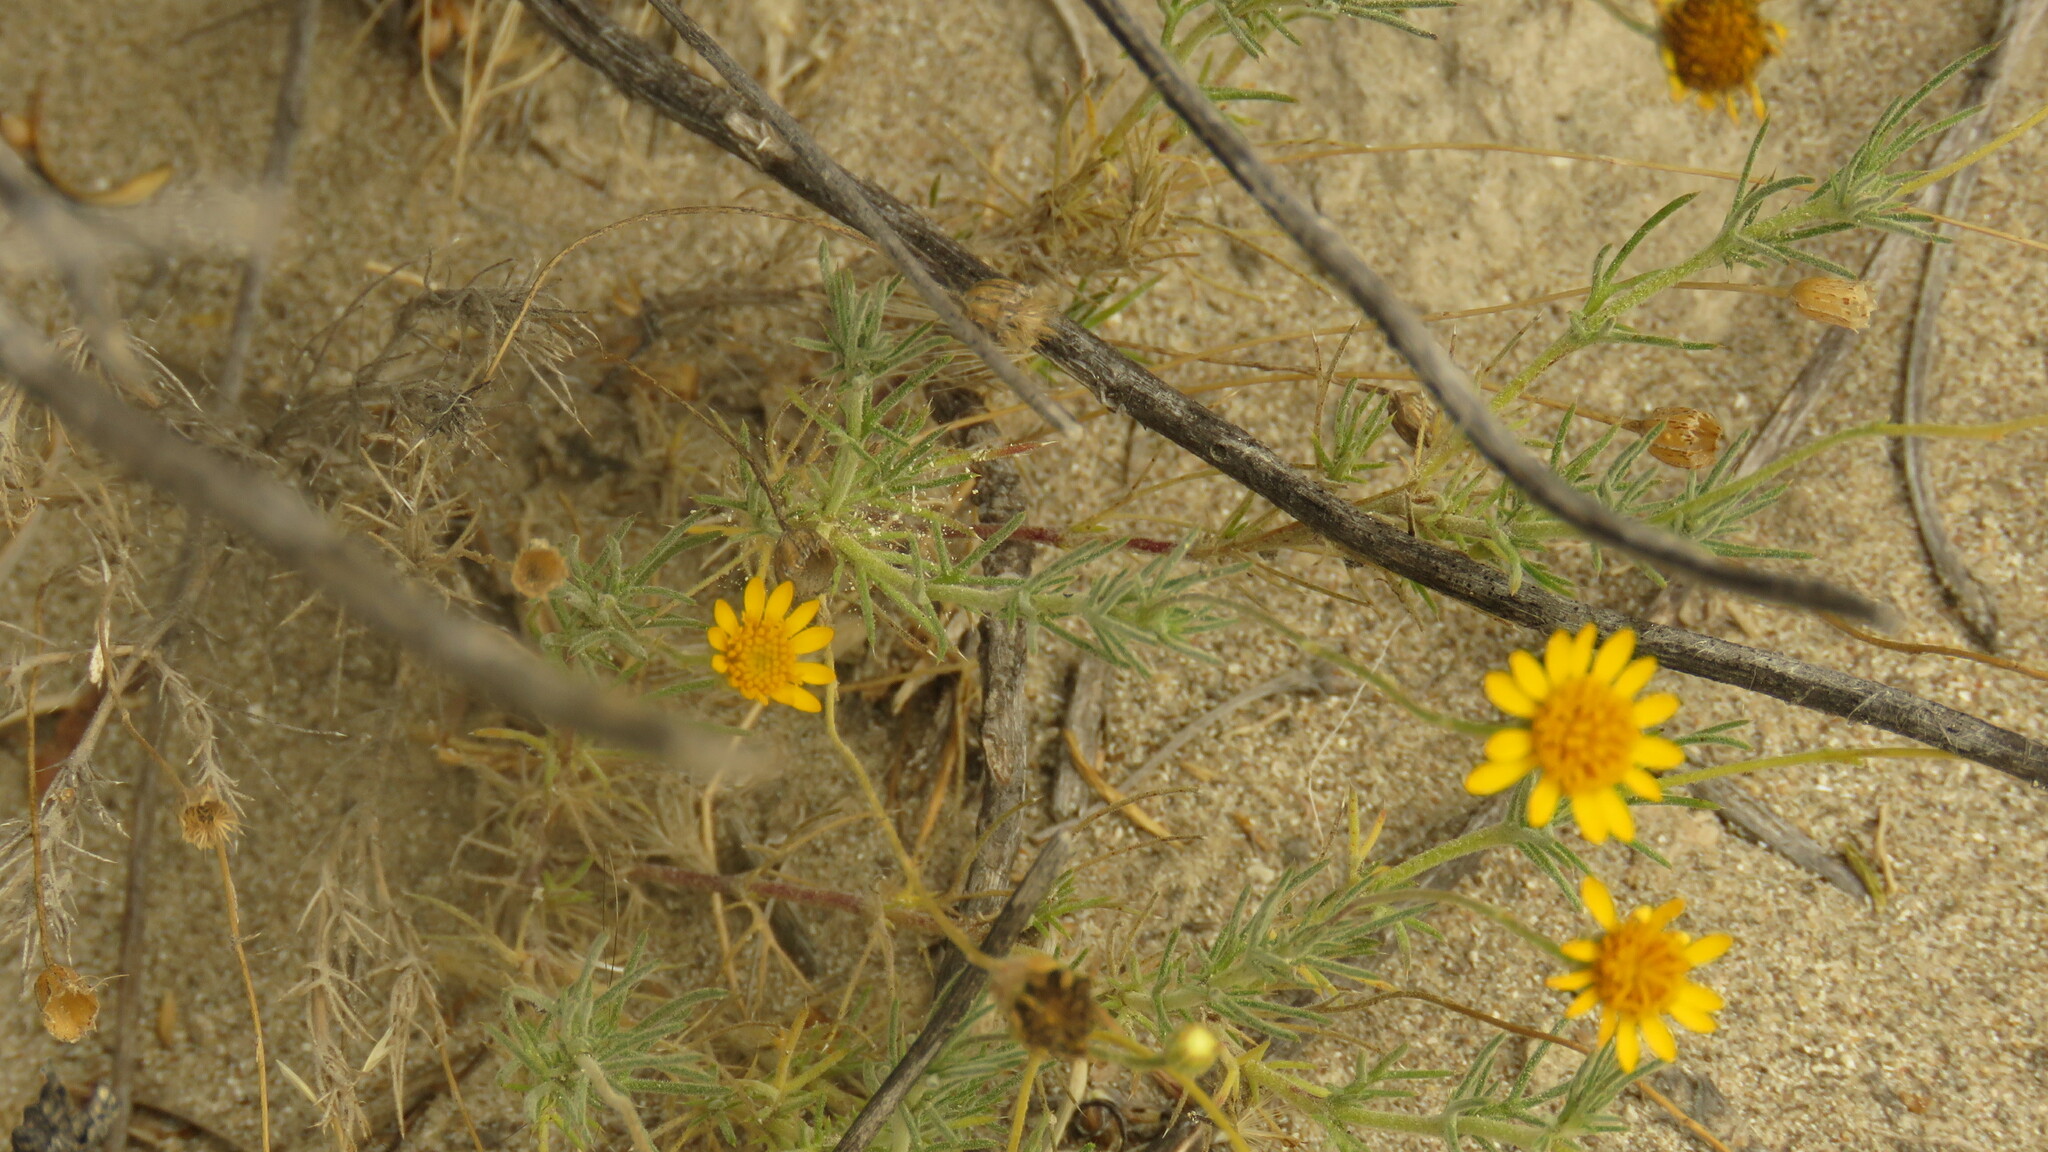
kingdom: Plantae
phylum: Tracheophyta
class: Magnoliopsida
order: Asterales
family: Asteraceae
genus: Thymophylla
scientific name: Thymophylla pentachaeta
